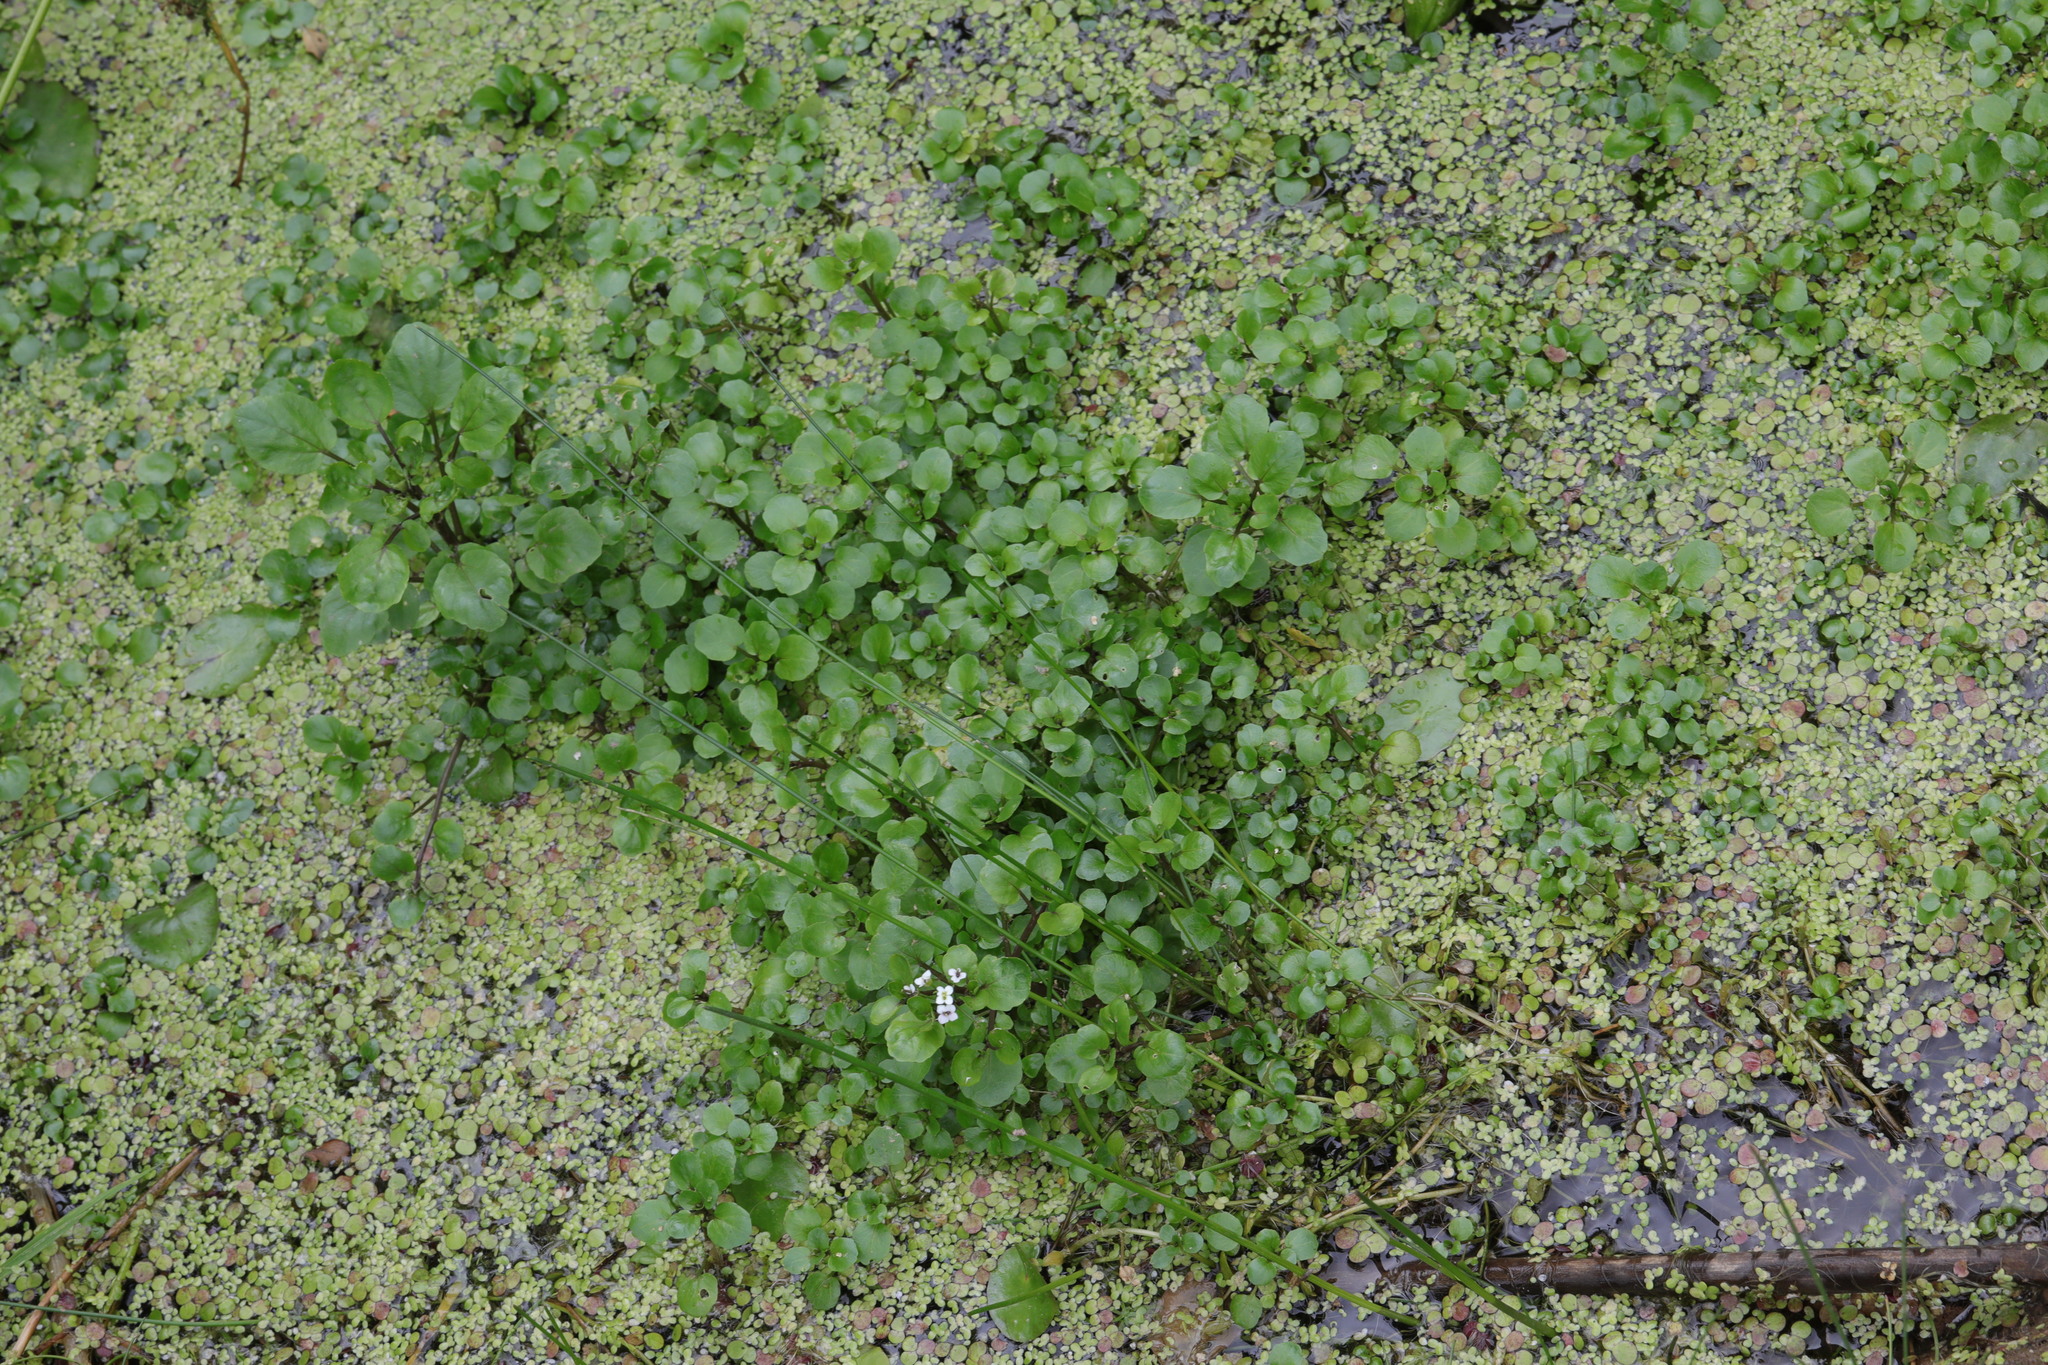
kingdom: Plantae
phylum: Tracheophyta
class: Magnoliopsida
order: Brassicales
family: Brassicaceae
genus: Nasturtium
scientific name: Nasturtium officinale
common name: Watercress
